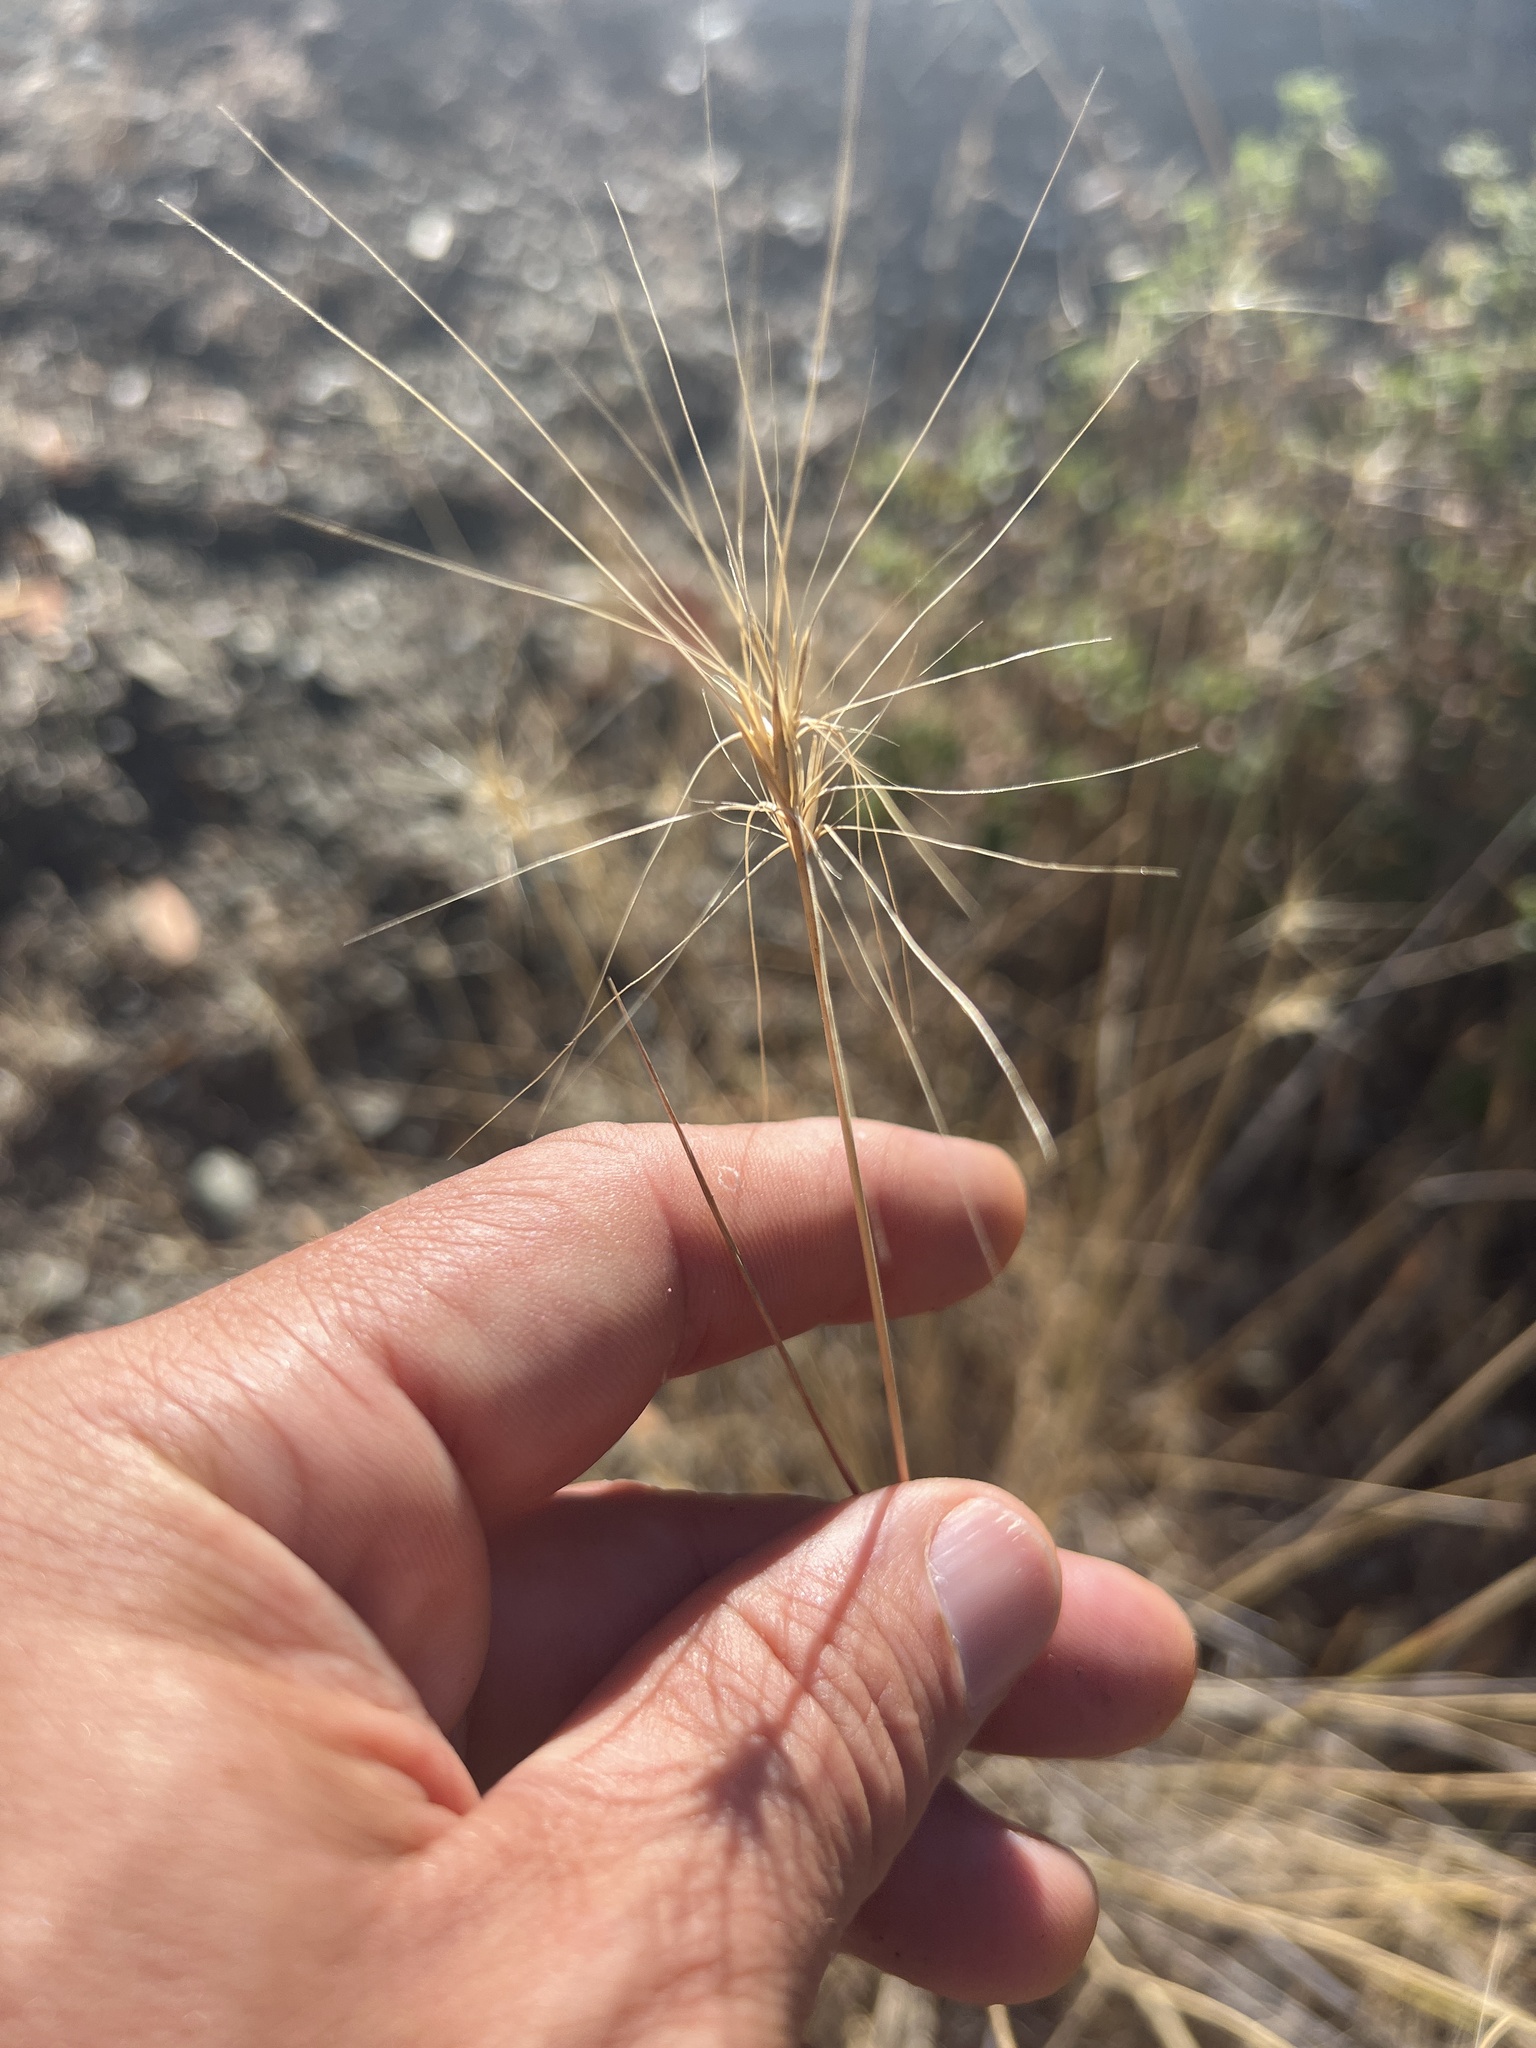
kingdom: Plantae
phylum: Tracheophyta
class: Liliopsida
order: Poales
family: Poaceae
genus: Elymus
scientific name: Elymus multisetus
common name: Big squirreltail
